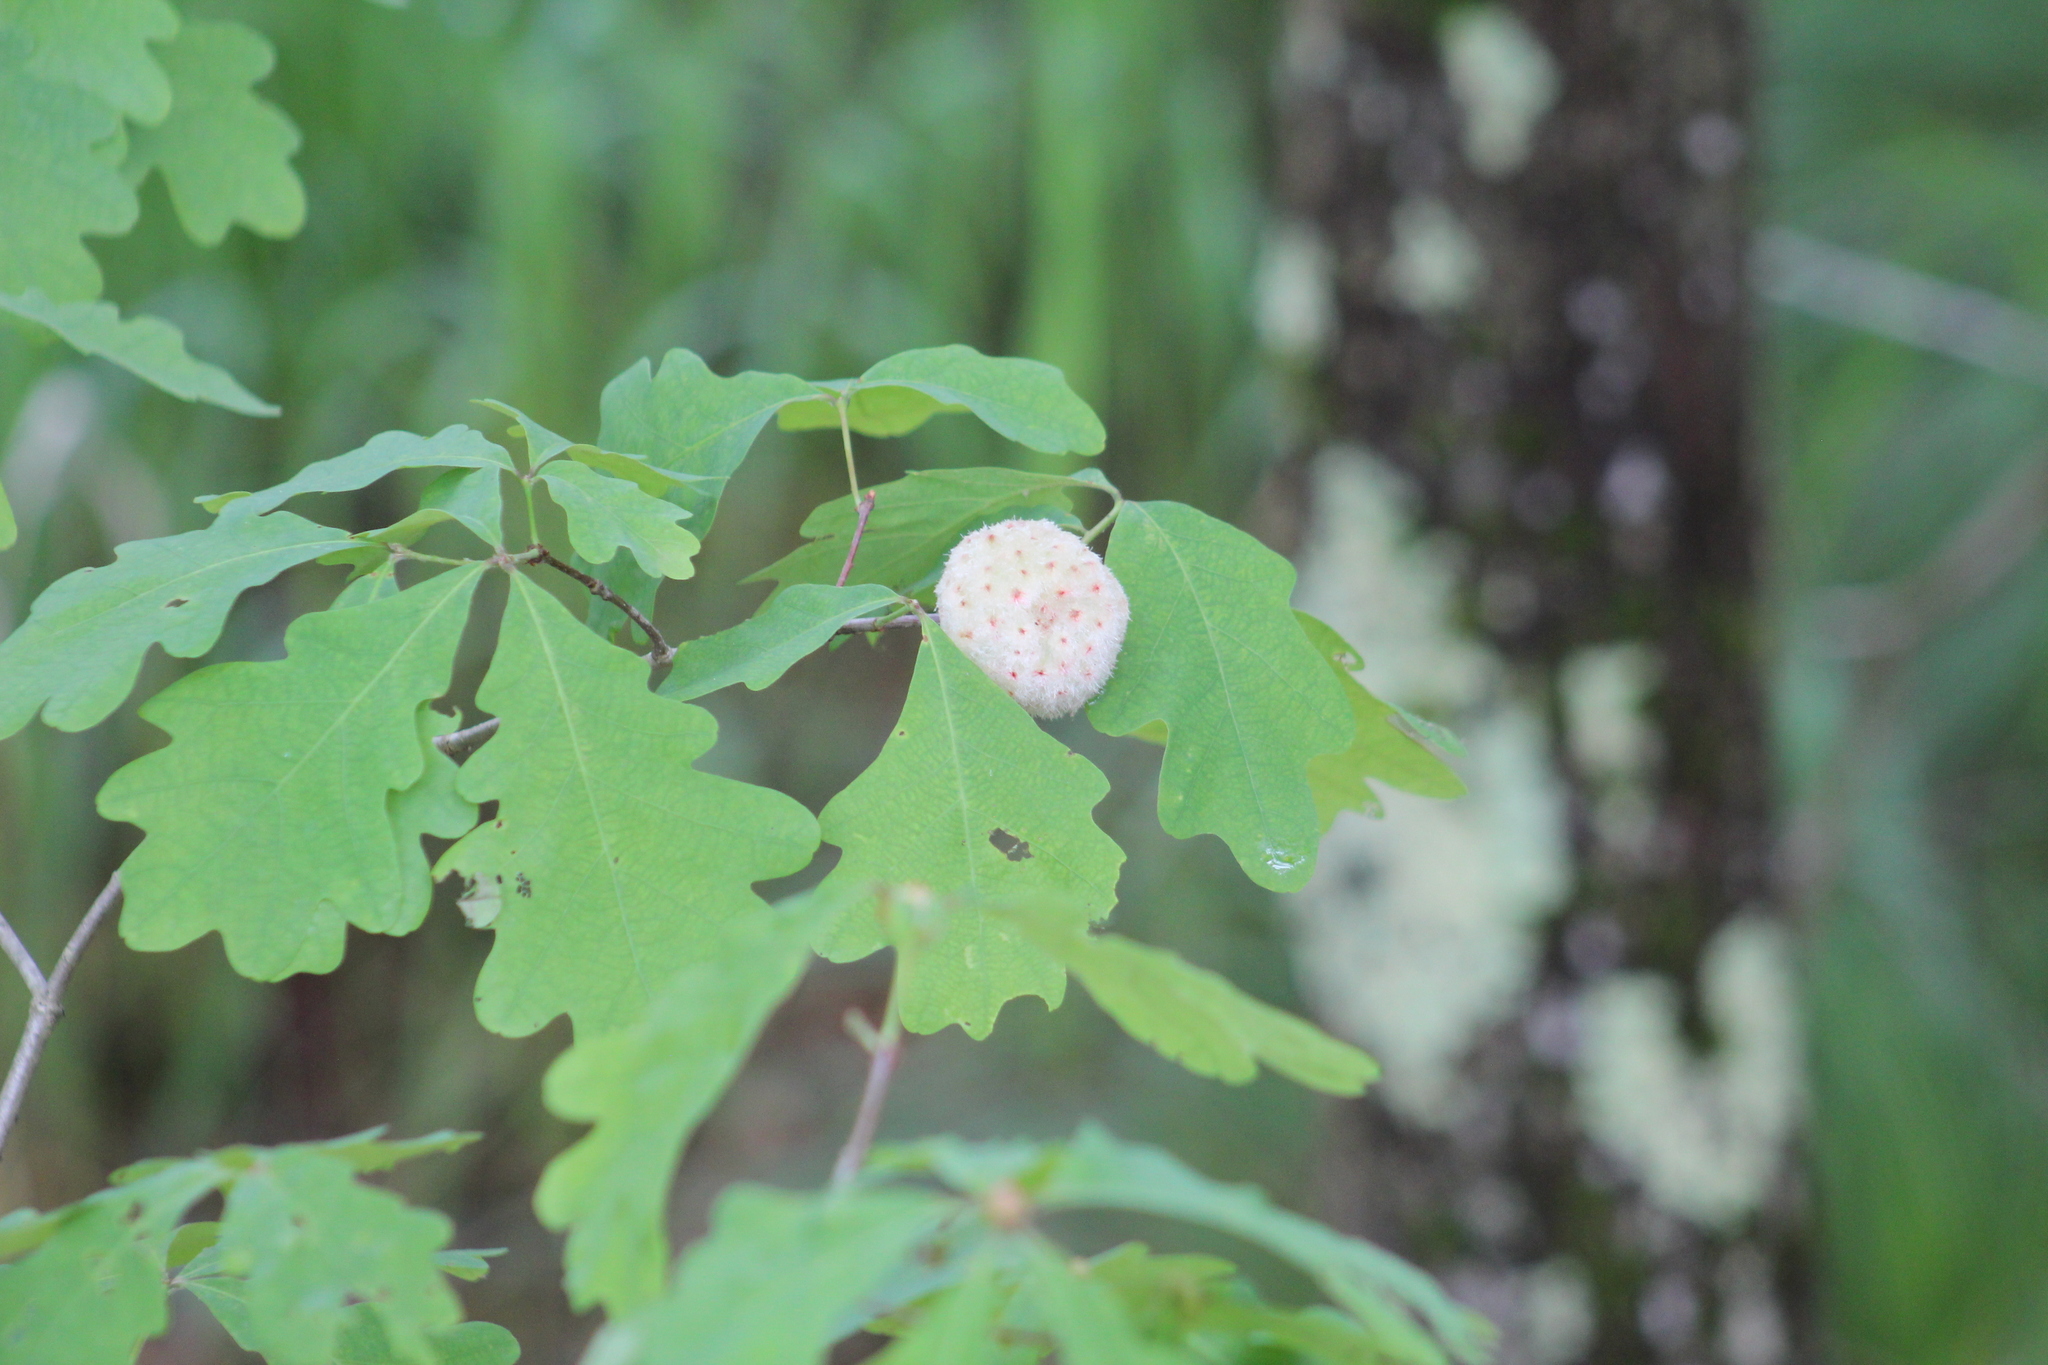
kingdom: Animalia
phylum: Arthropoda
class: Insecta
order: Hymenoptera
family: Cynipidae
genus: Callirhytis
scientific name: Callirhytis
